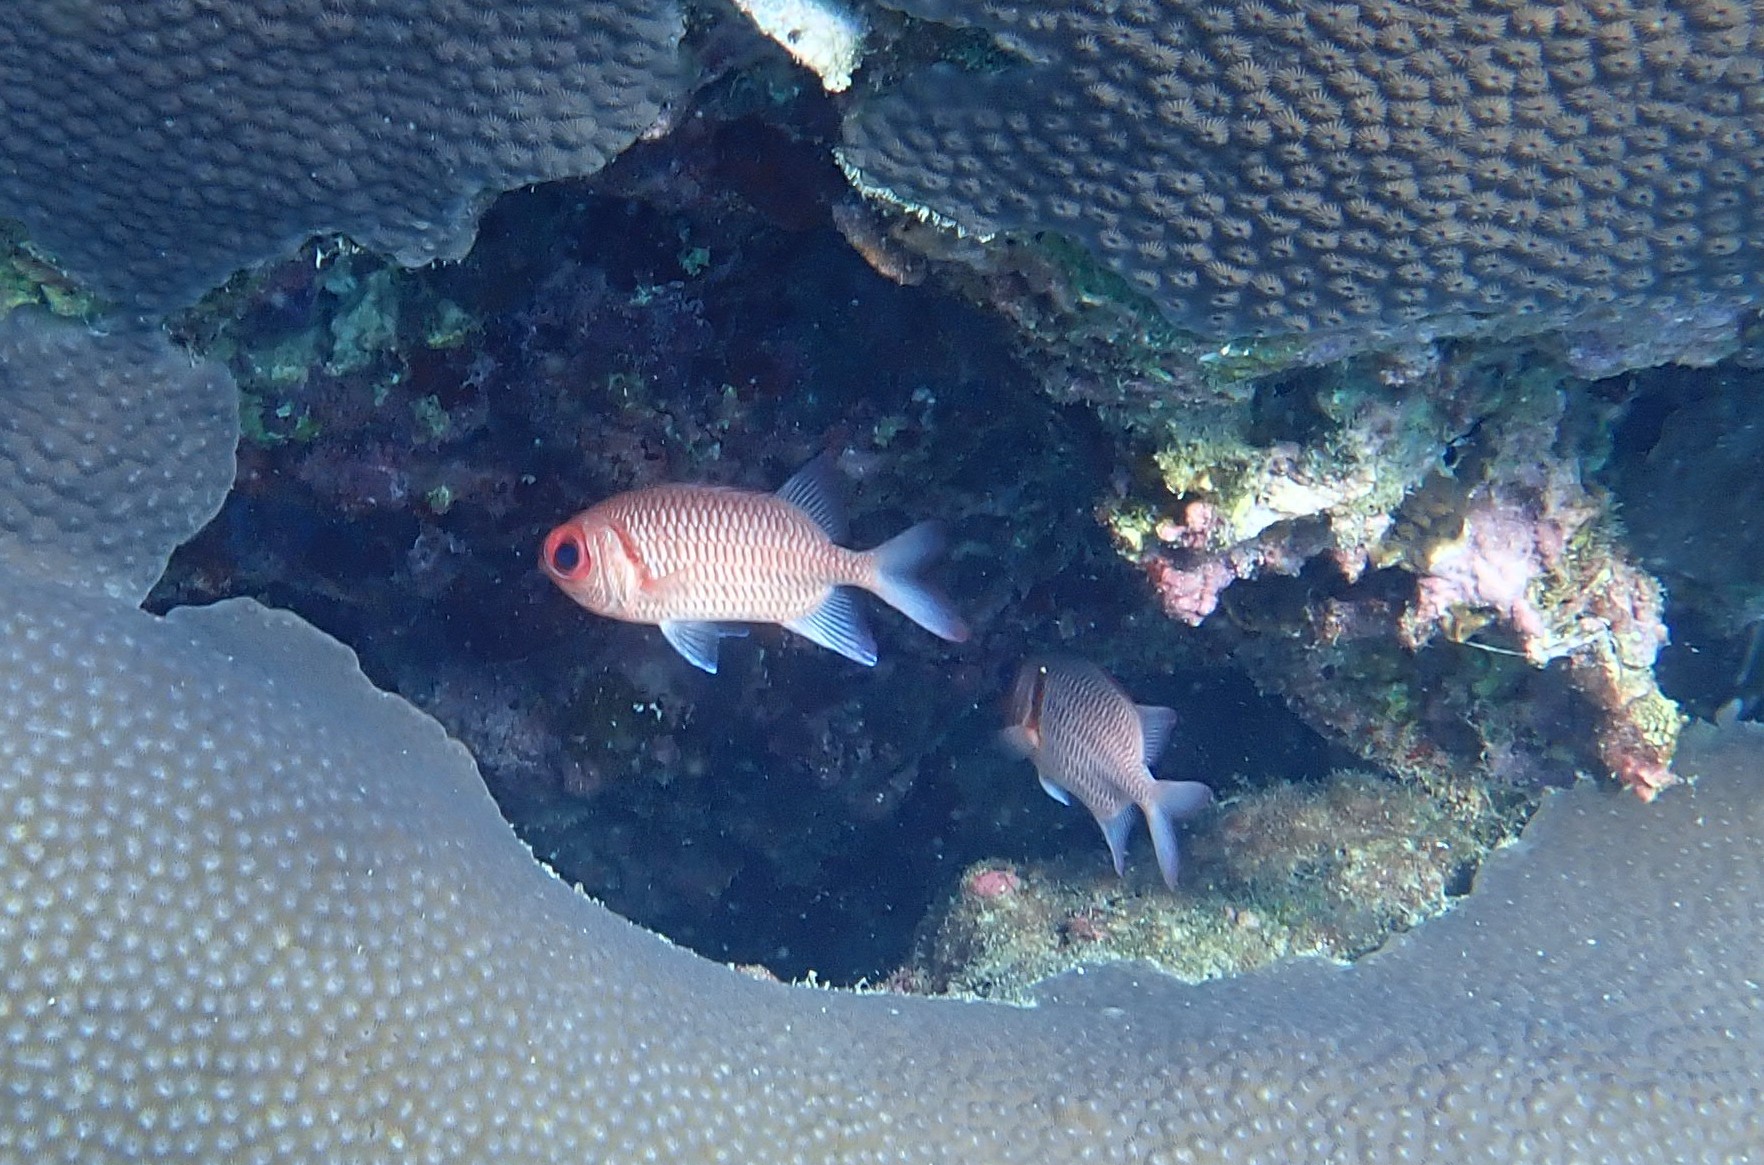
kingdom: Animalia
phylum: Chordata
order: Beryciformes
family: Holocentridae
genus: Myripristis
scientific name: Myripristis hexagona
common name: Blacktip soldierfish
